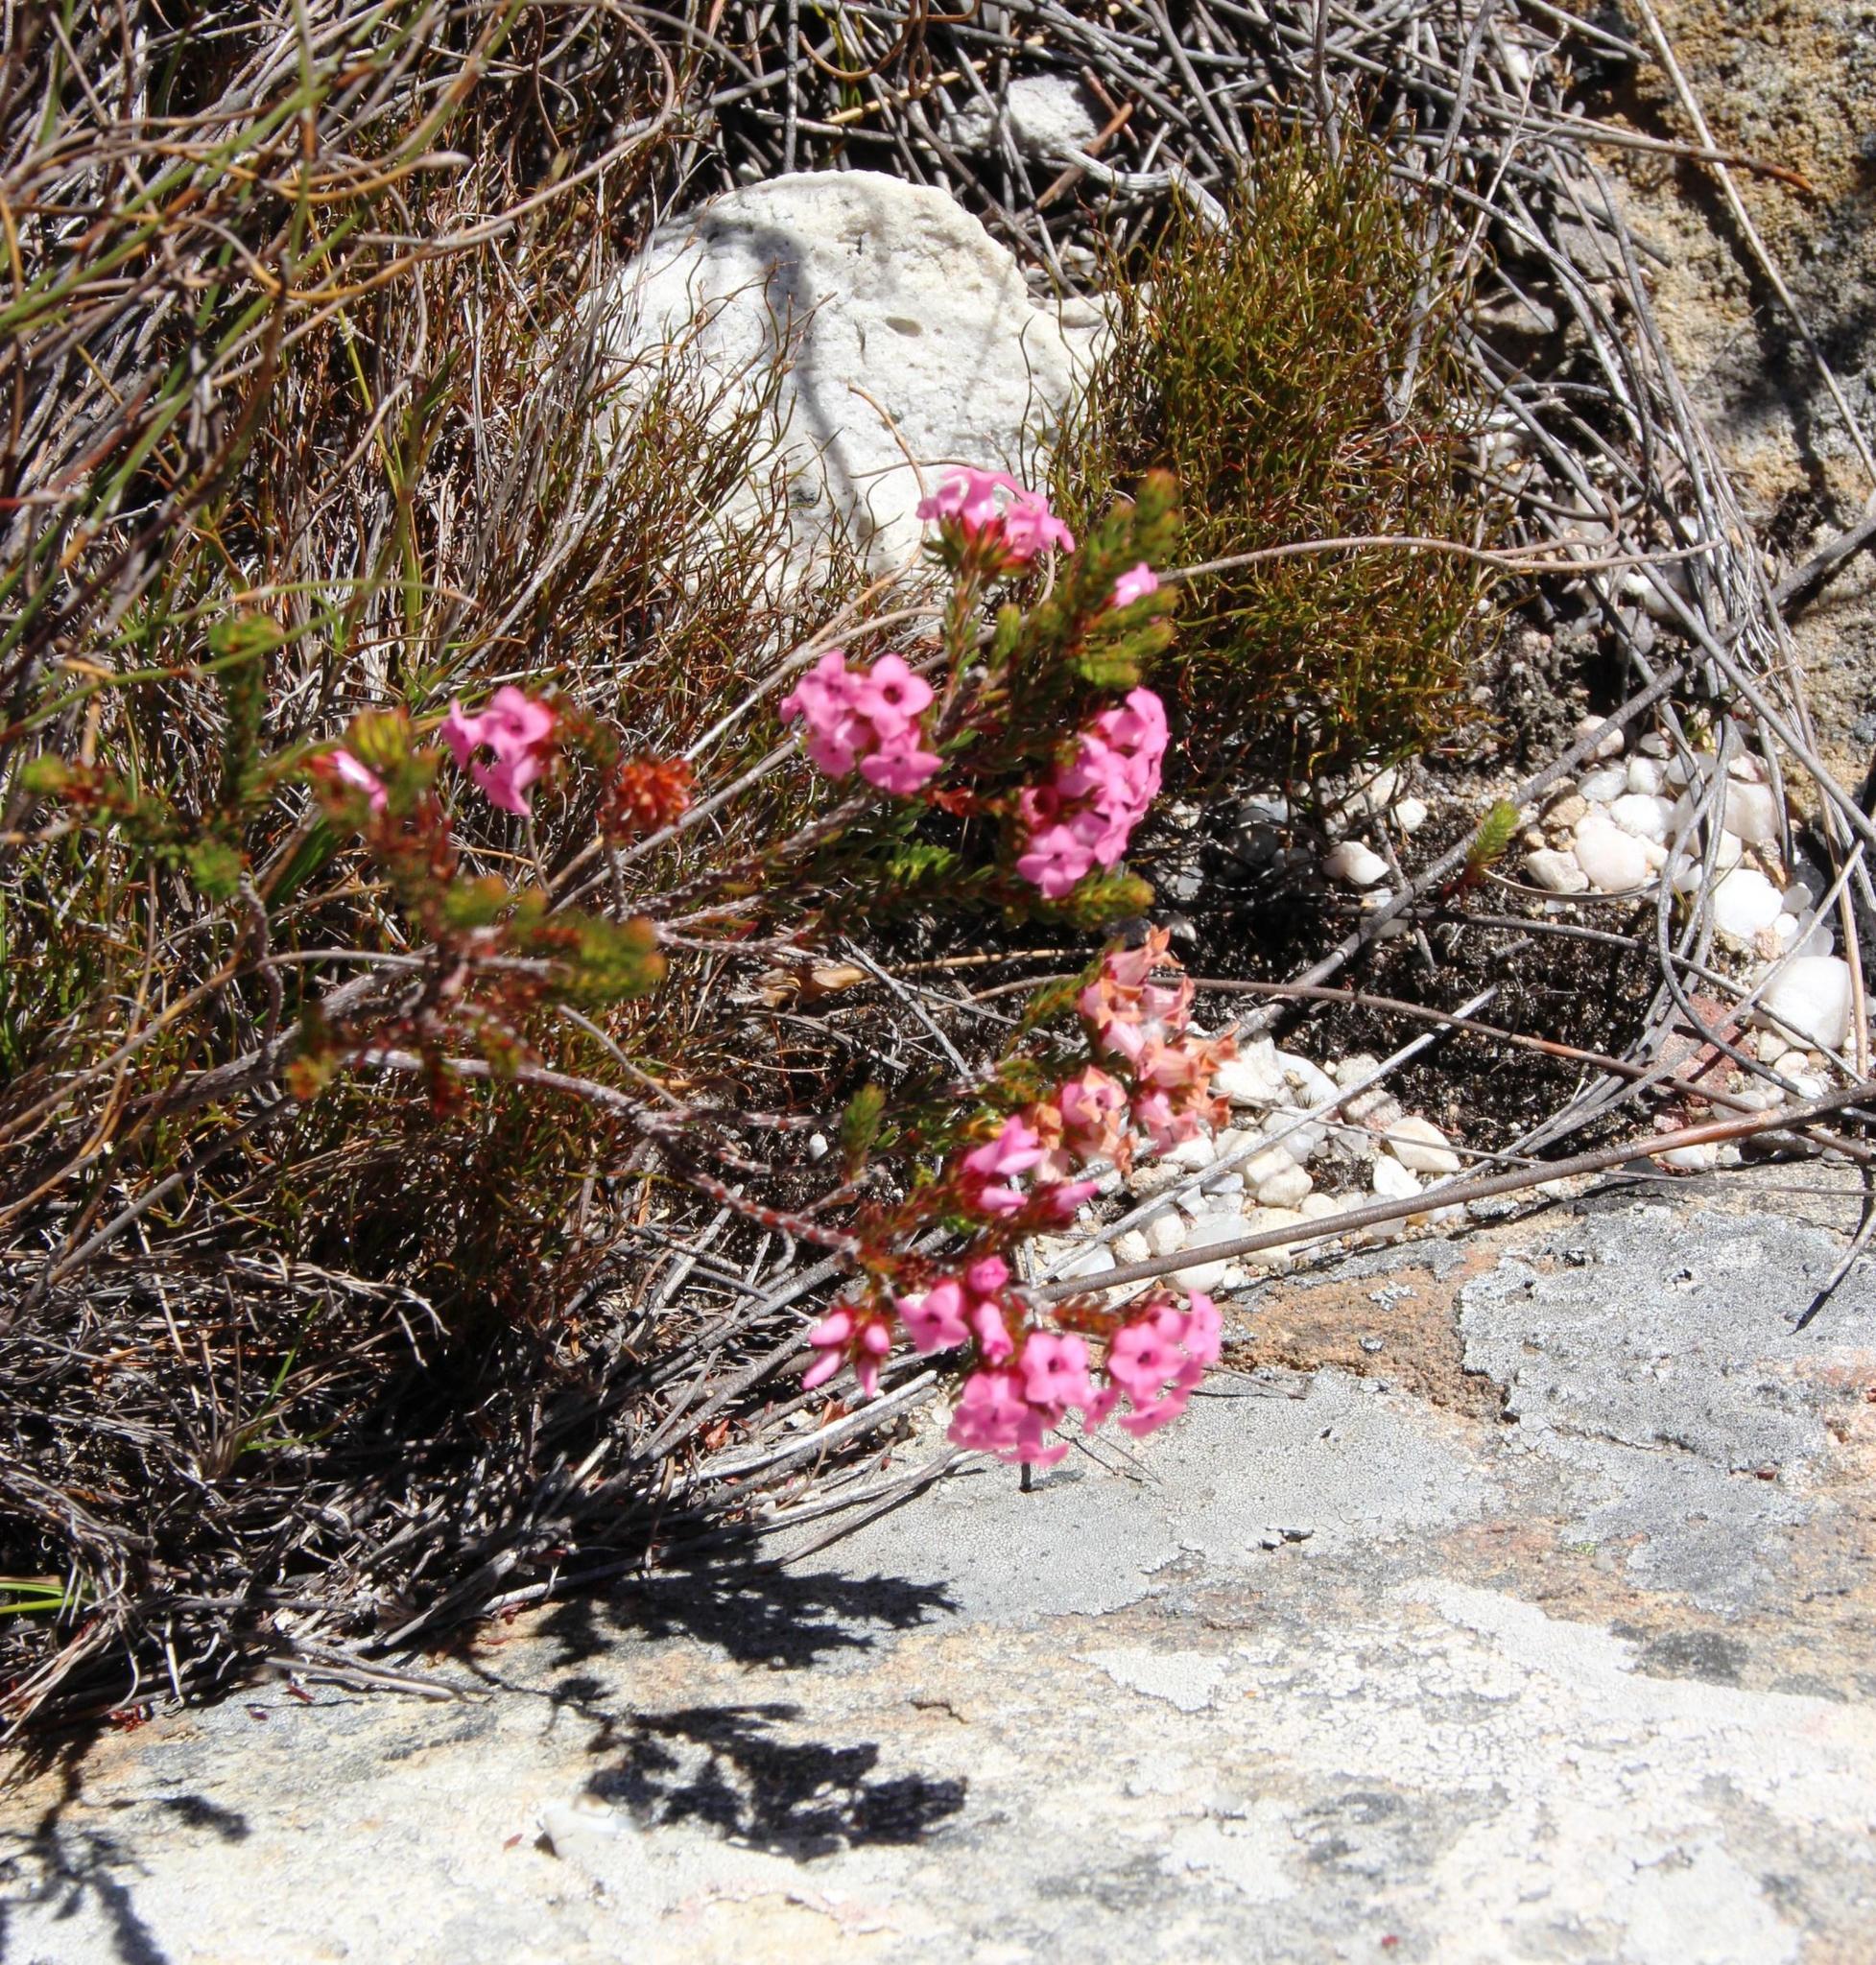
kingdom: Plantae
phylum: Tracheophyta
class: Magnoliopsida
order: Ericales
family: Ericaceae
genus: Erica
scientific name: Erica daphniflora
